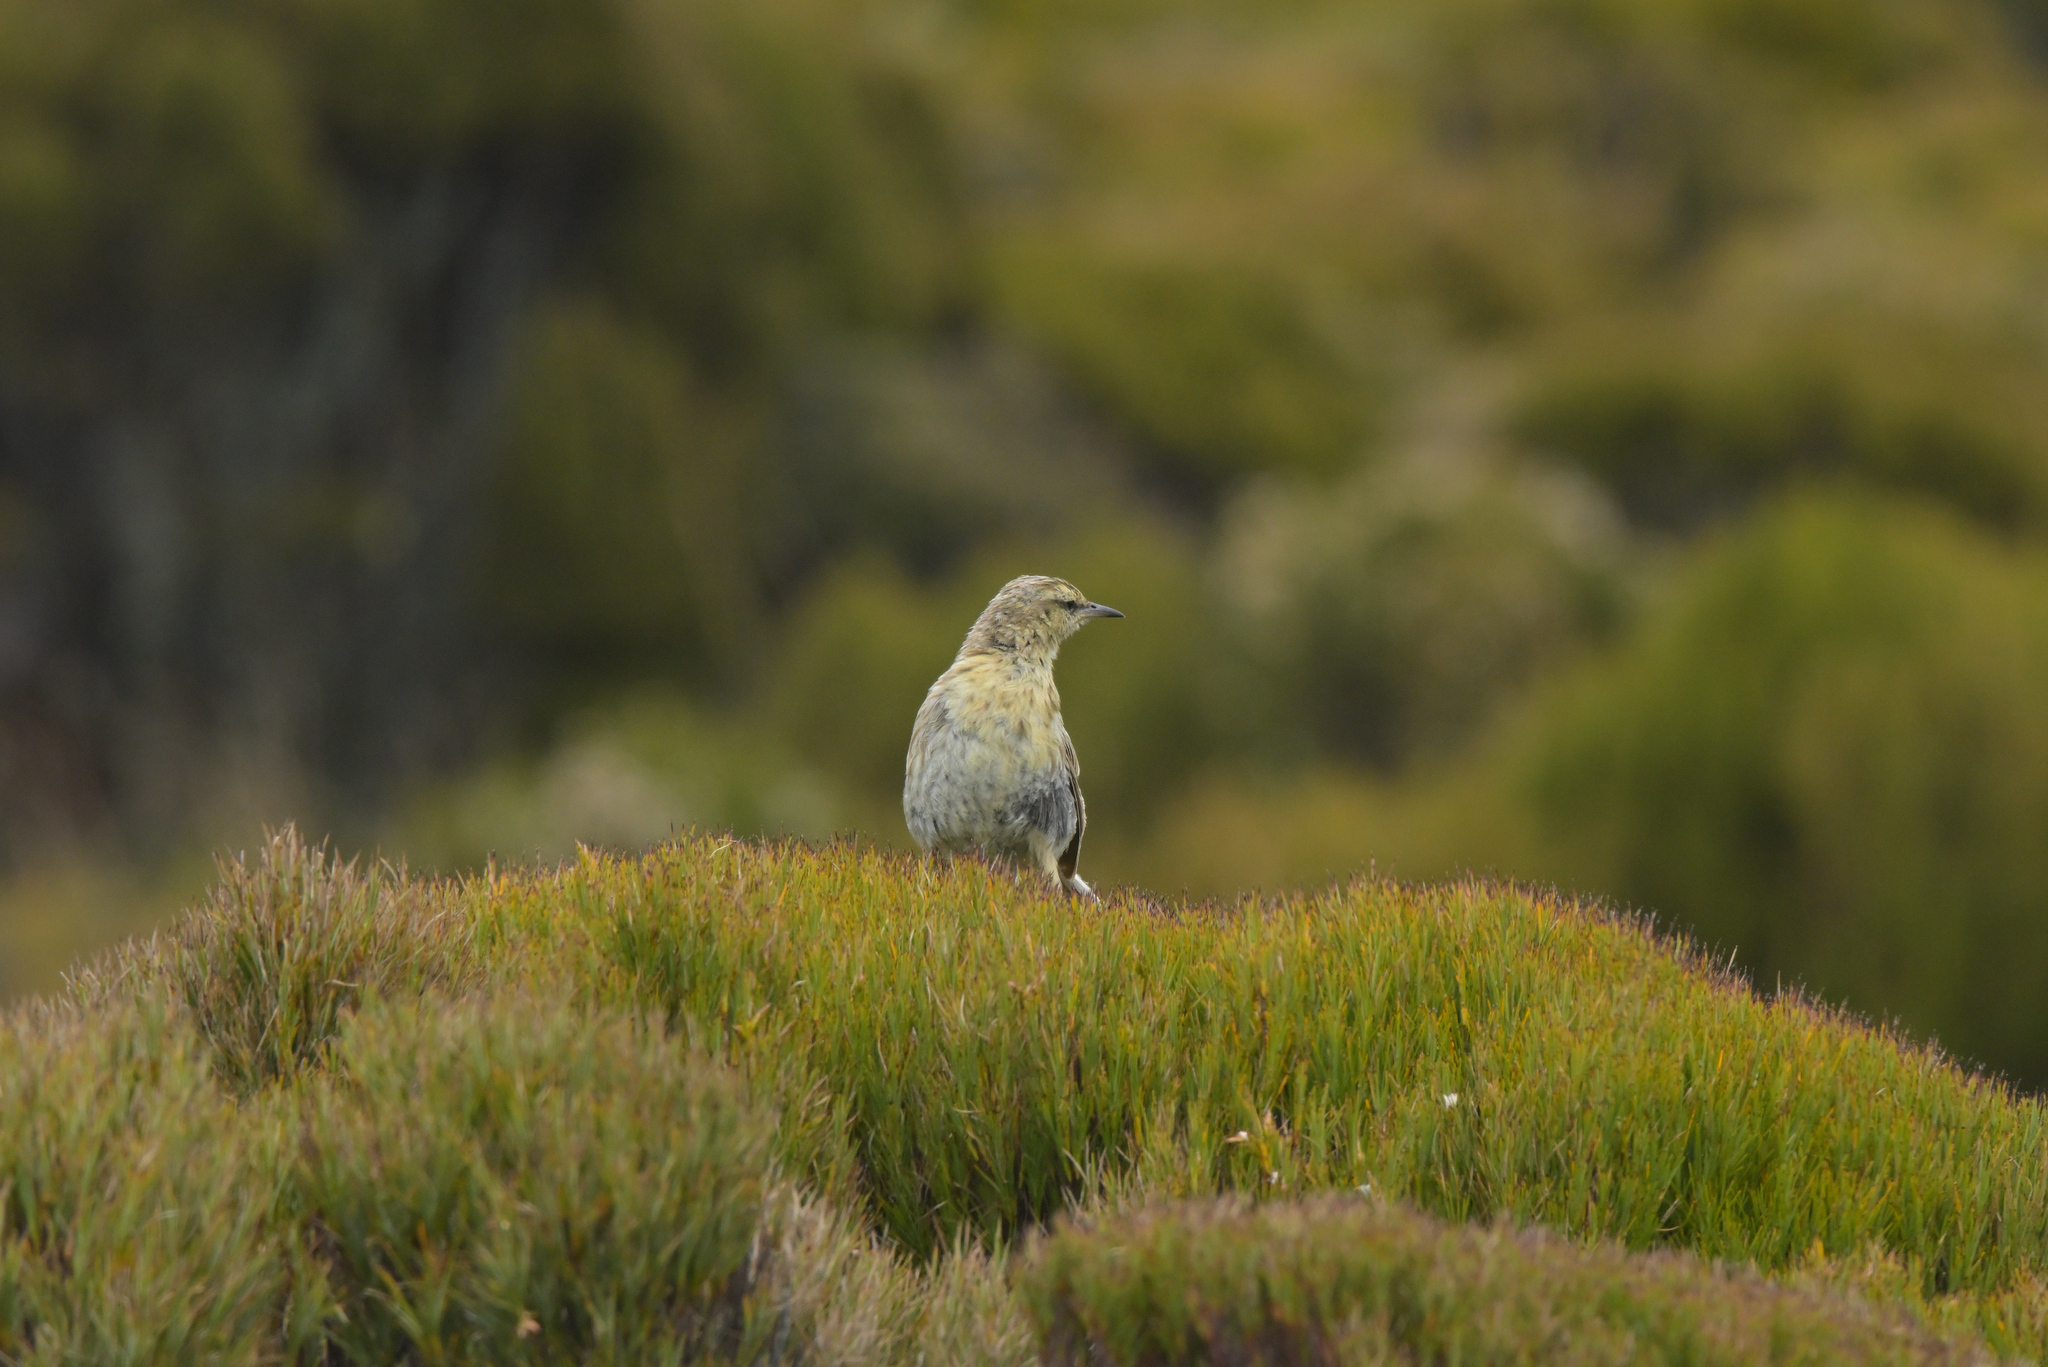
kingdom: Animalia
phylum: Chordata
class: Aves
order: Passeriformes
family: Motacillidae
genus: Anthus
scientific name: Anthus novaeseelandiae
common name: New zealand pipit
